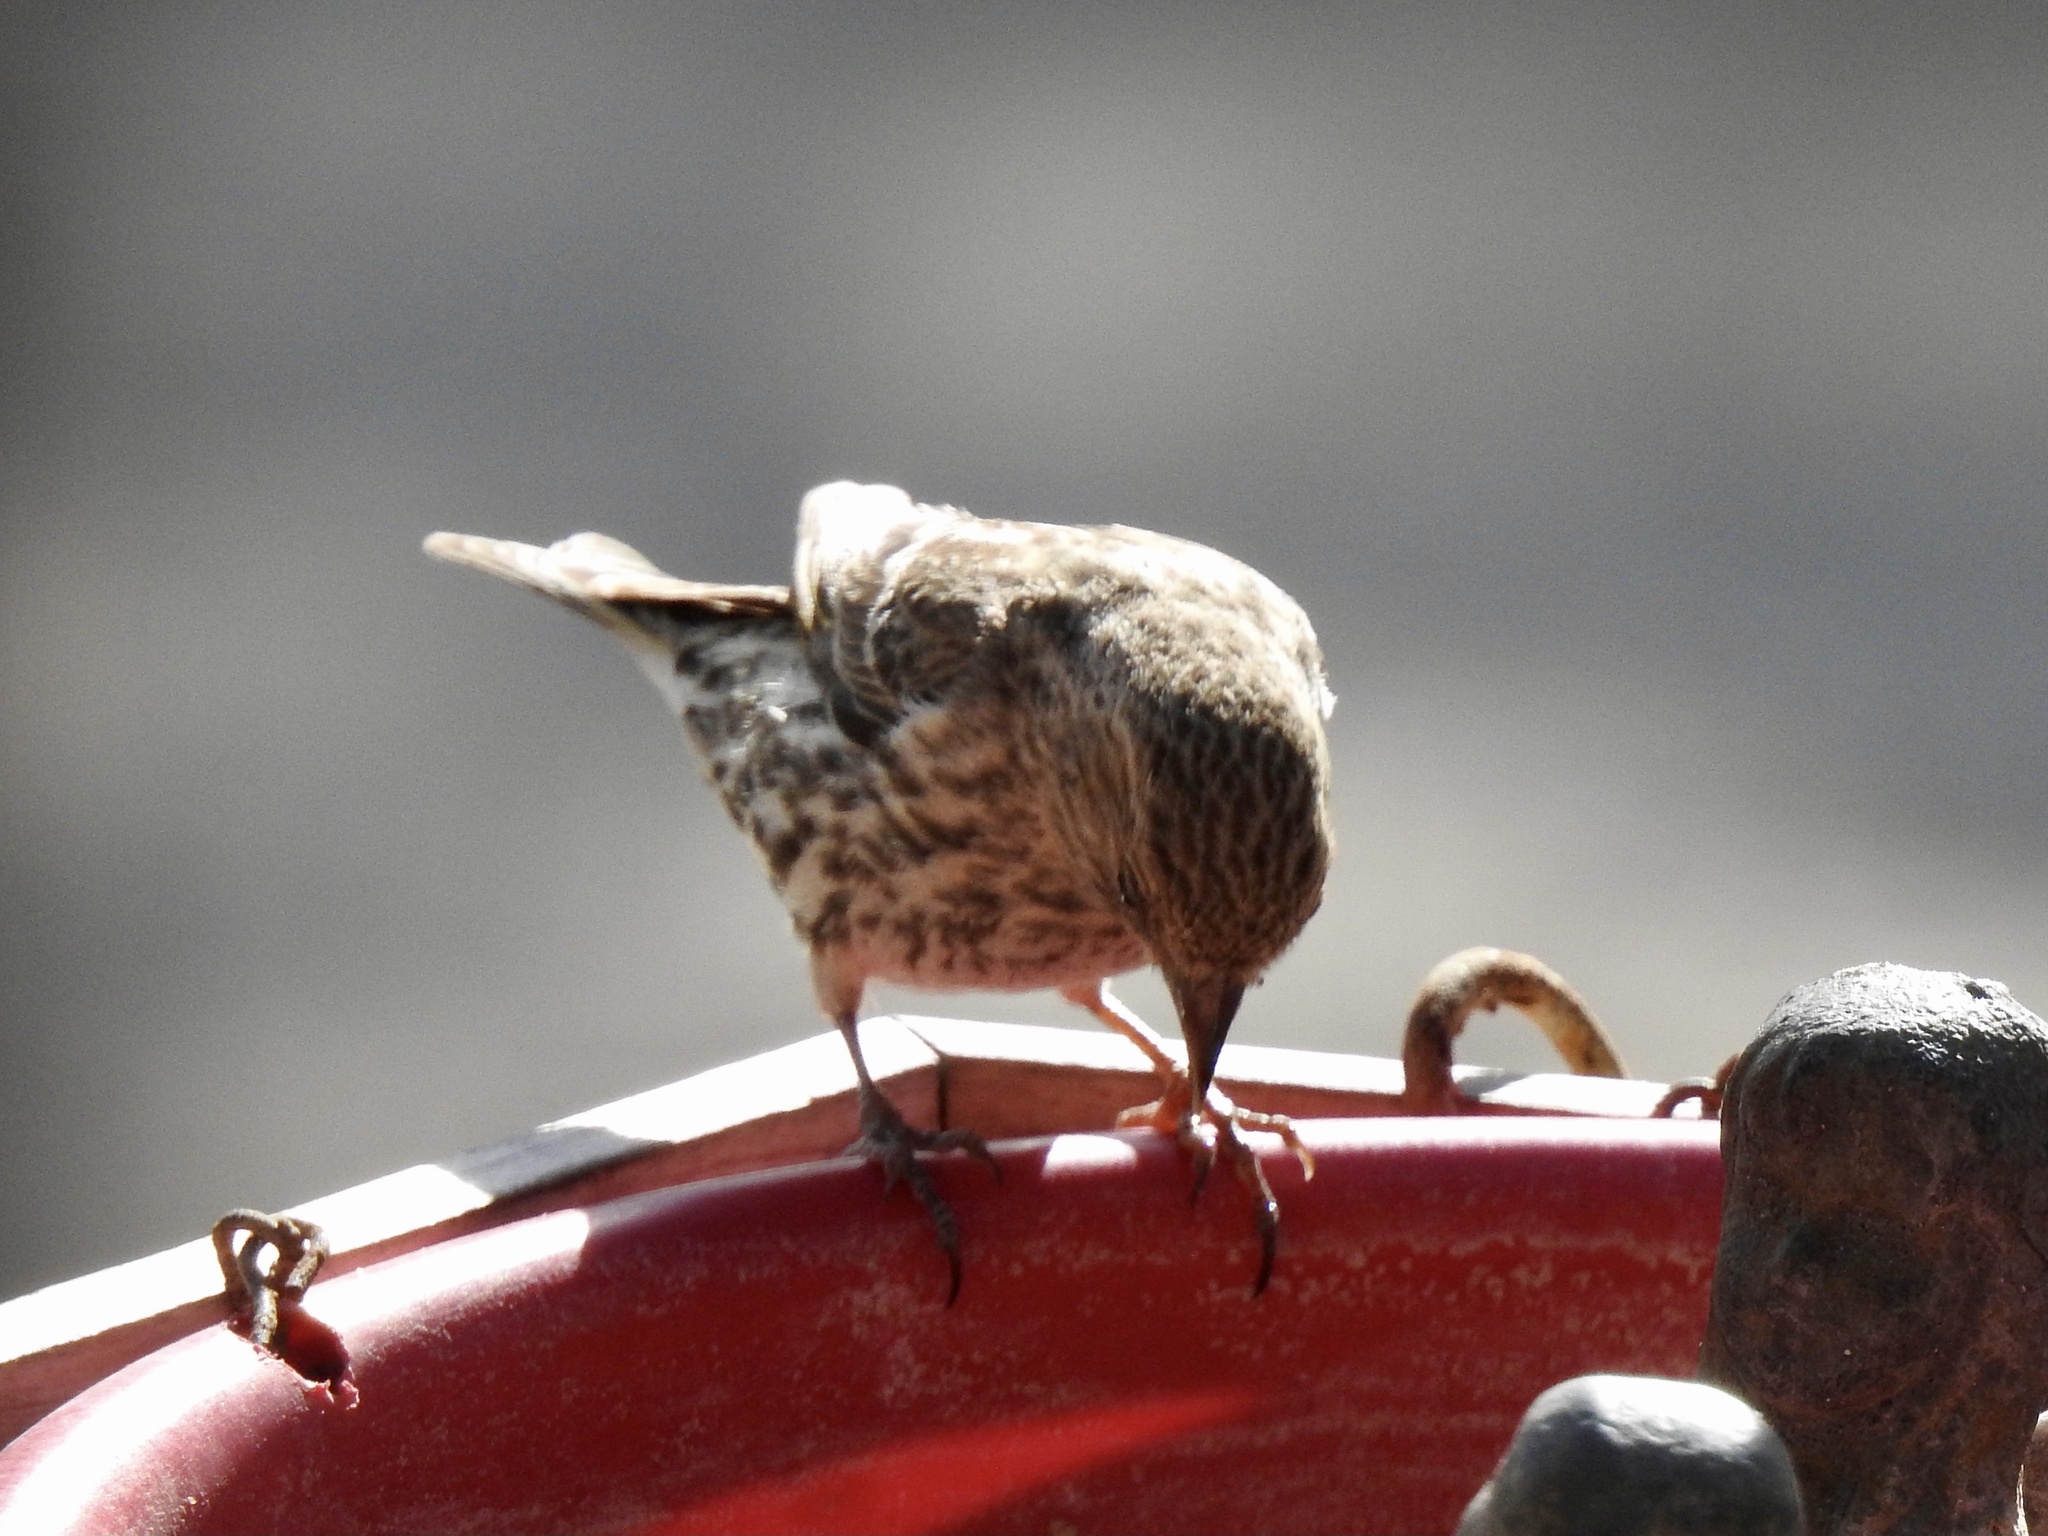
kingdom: Animalia
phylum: Chordata
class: Aves
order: Passeriformes
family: Fringillidae
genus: Spinus
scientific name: Spinus pinus
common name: Pine siskin
